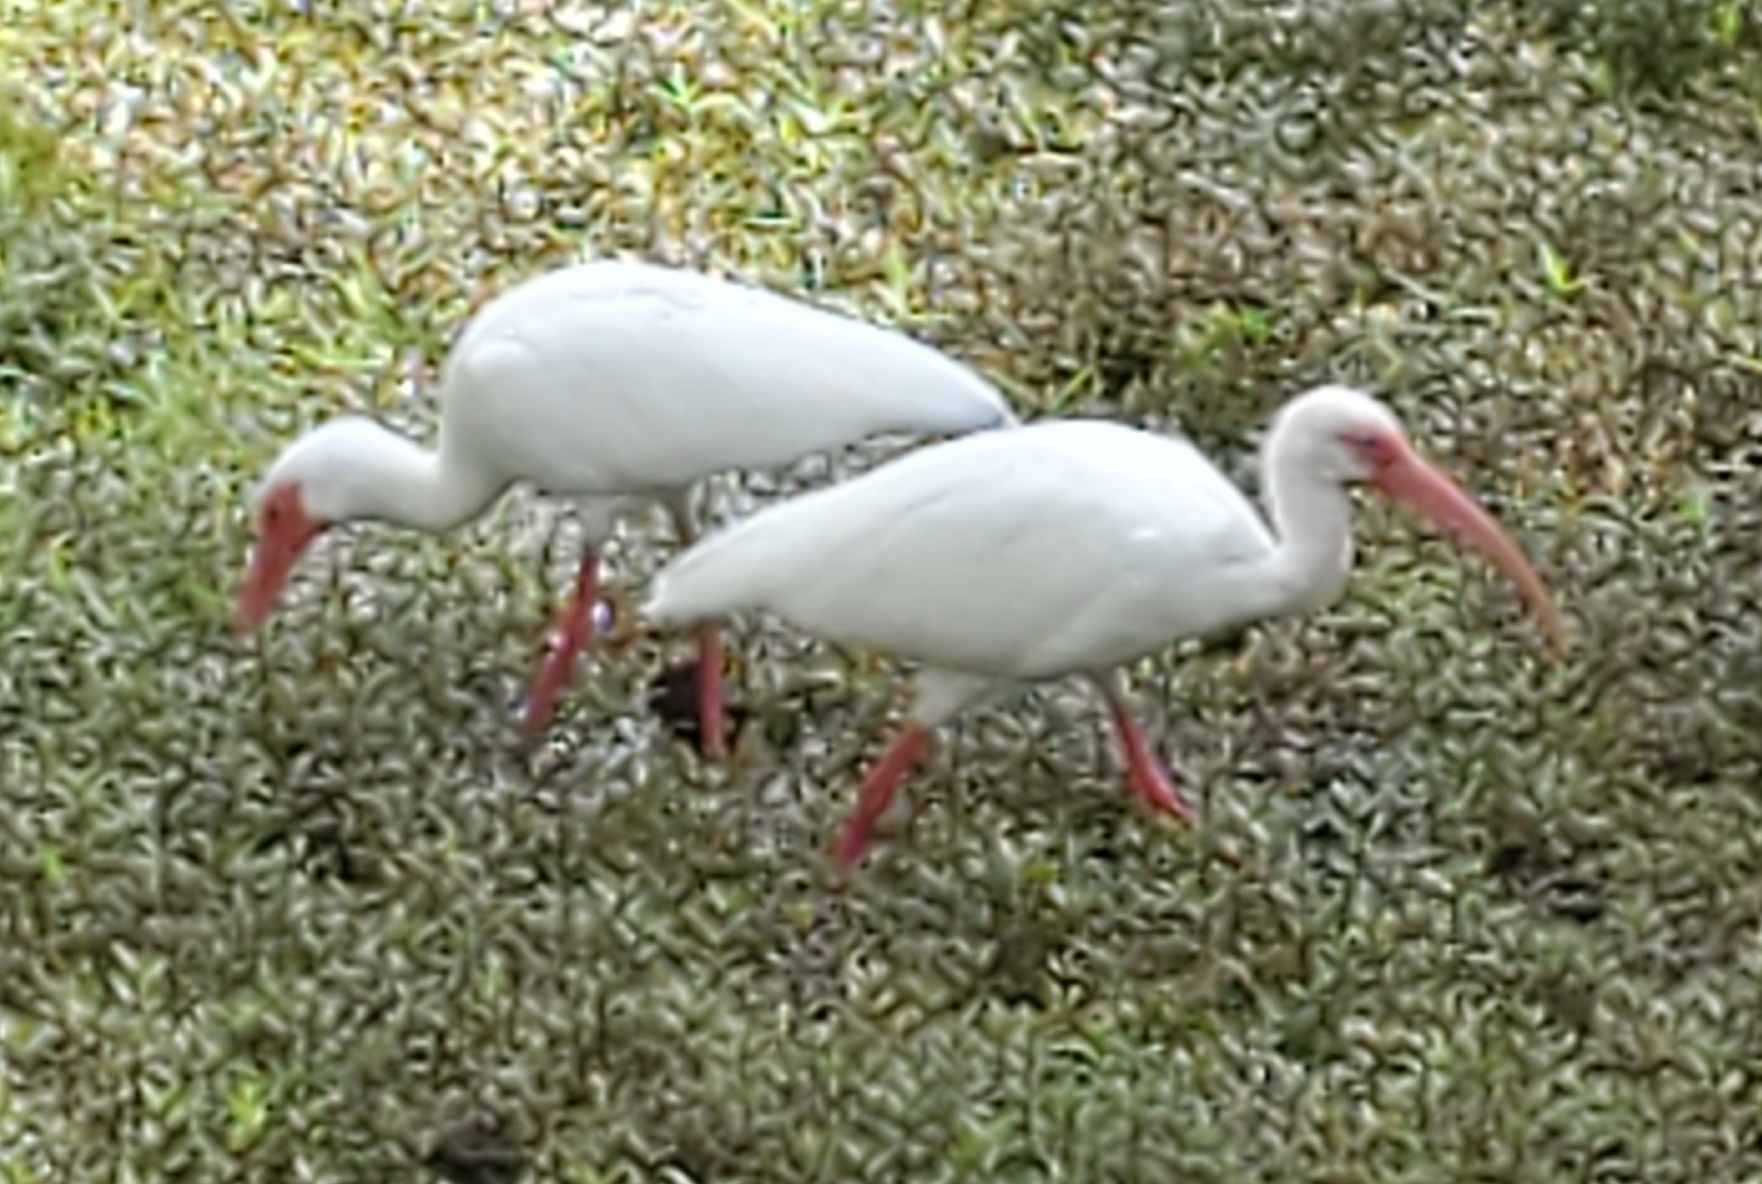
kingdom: Animalia
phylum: Chordata
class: Aves
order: Pelecaniformes
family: Threskiornithidae
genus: Eudocimus
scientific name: Eudocimus albus
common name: White ibis
